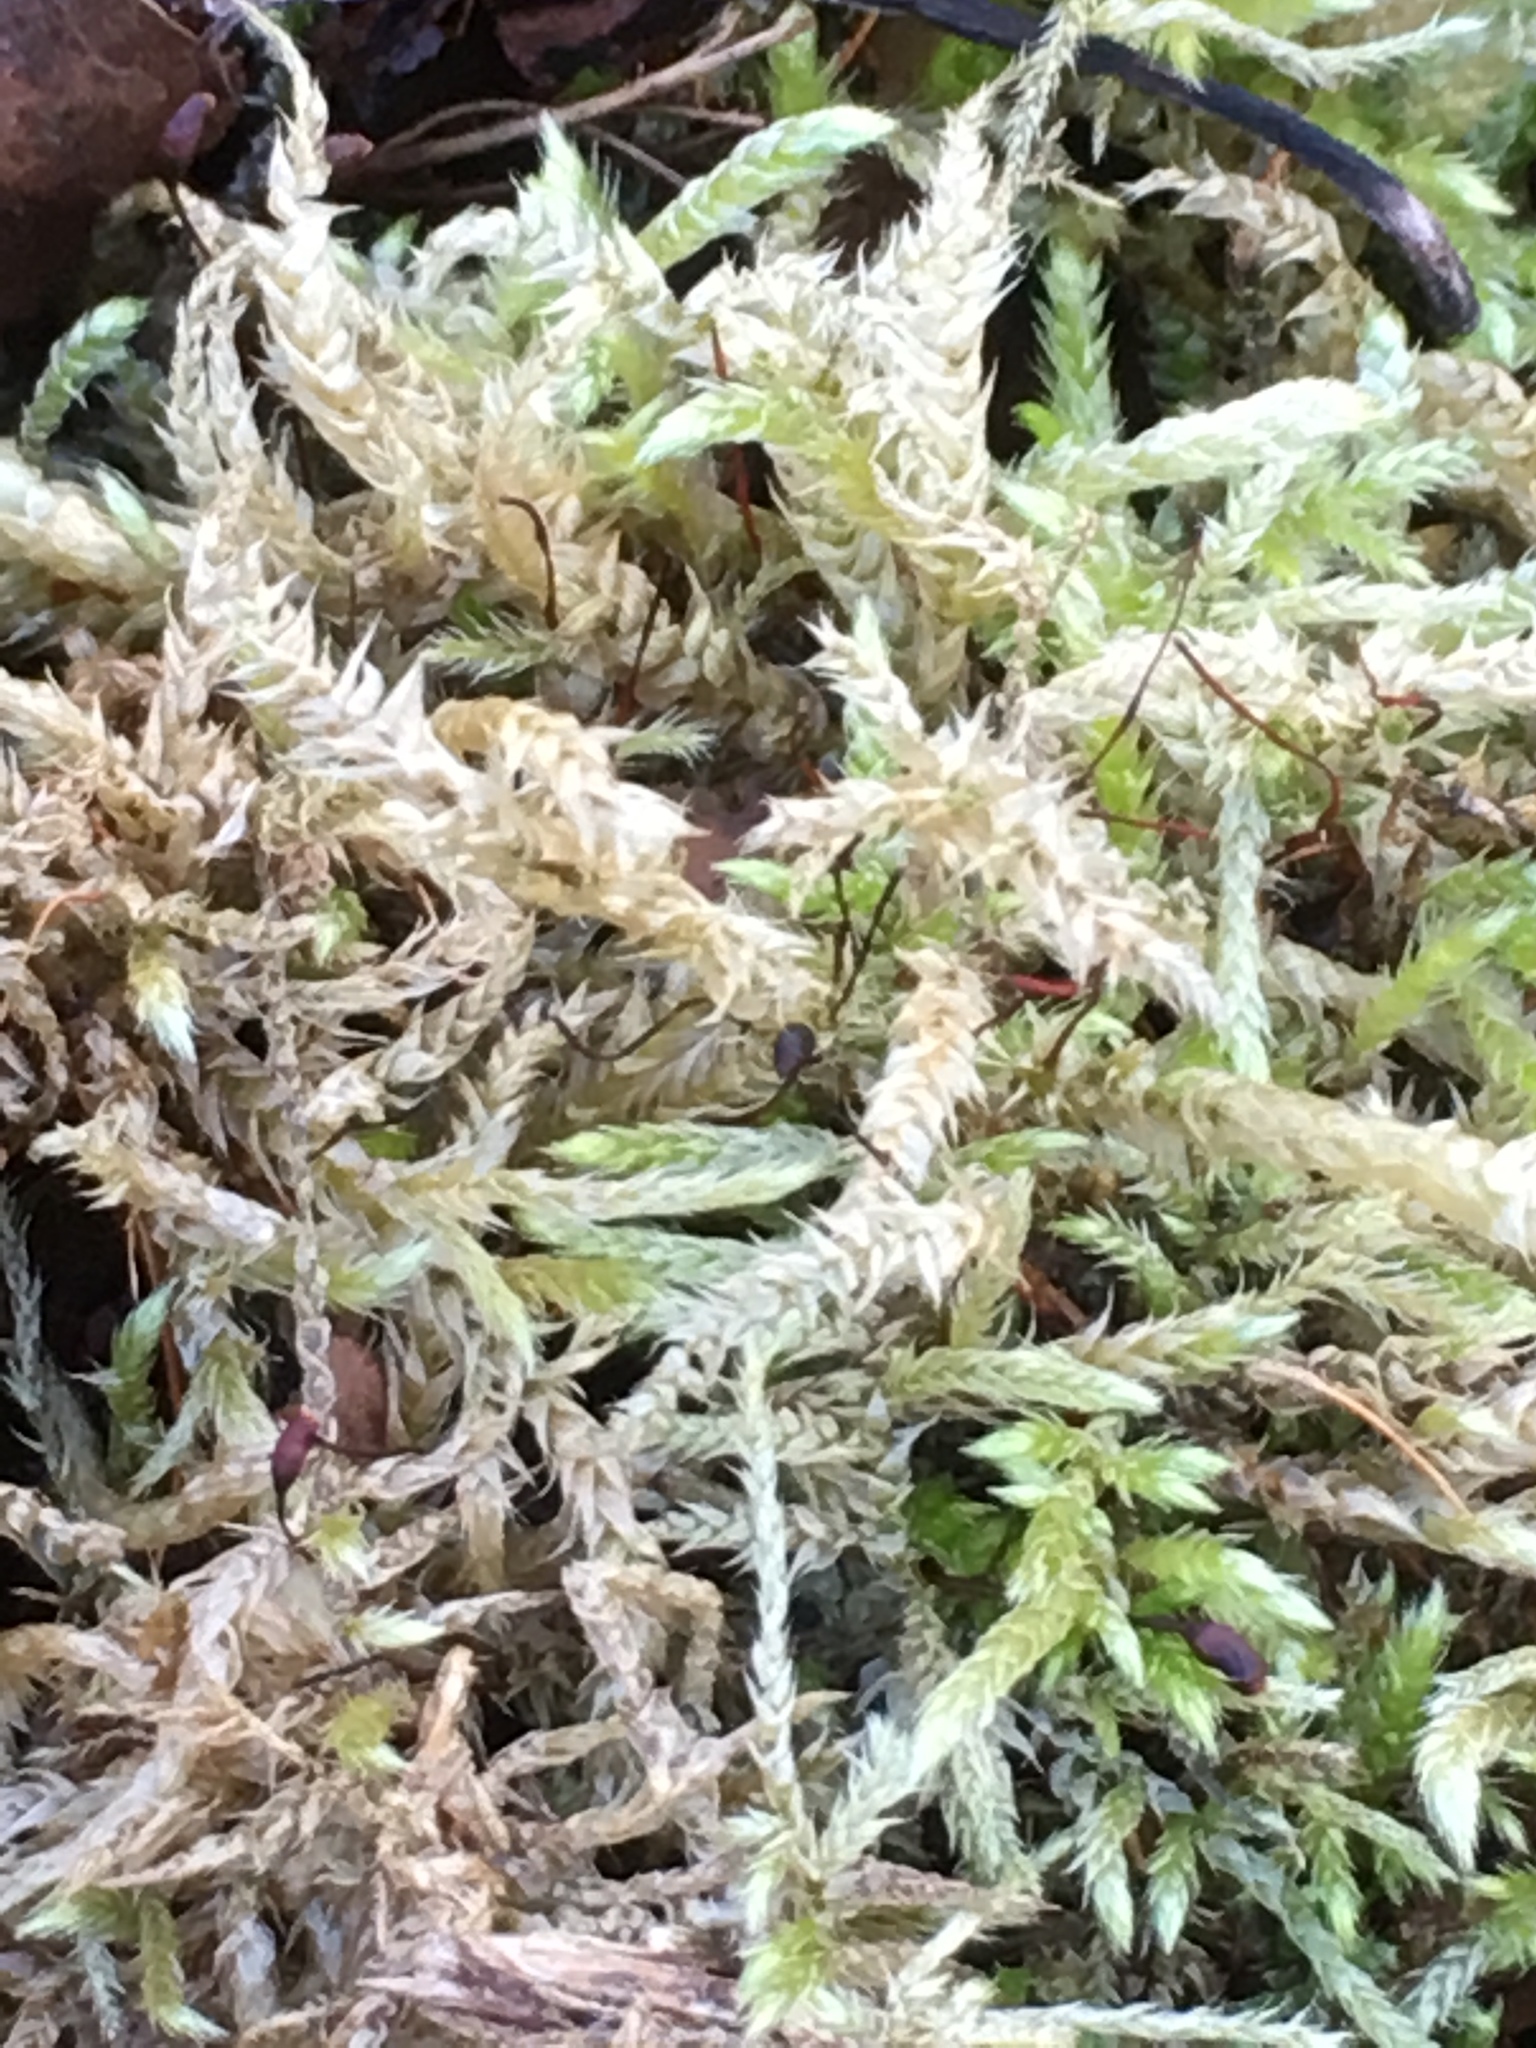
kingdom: Plantae
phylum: Bryophyta
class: Bryopsida
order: Hypnales
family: Brachytheciaceae
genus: Brachythecium
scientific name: Brachythecium rutabulum
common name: Rough-stalked feather-moss
